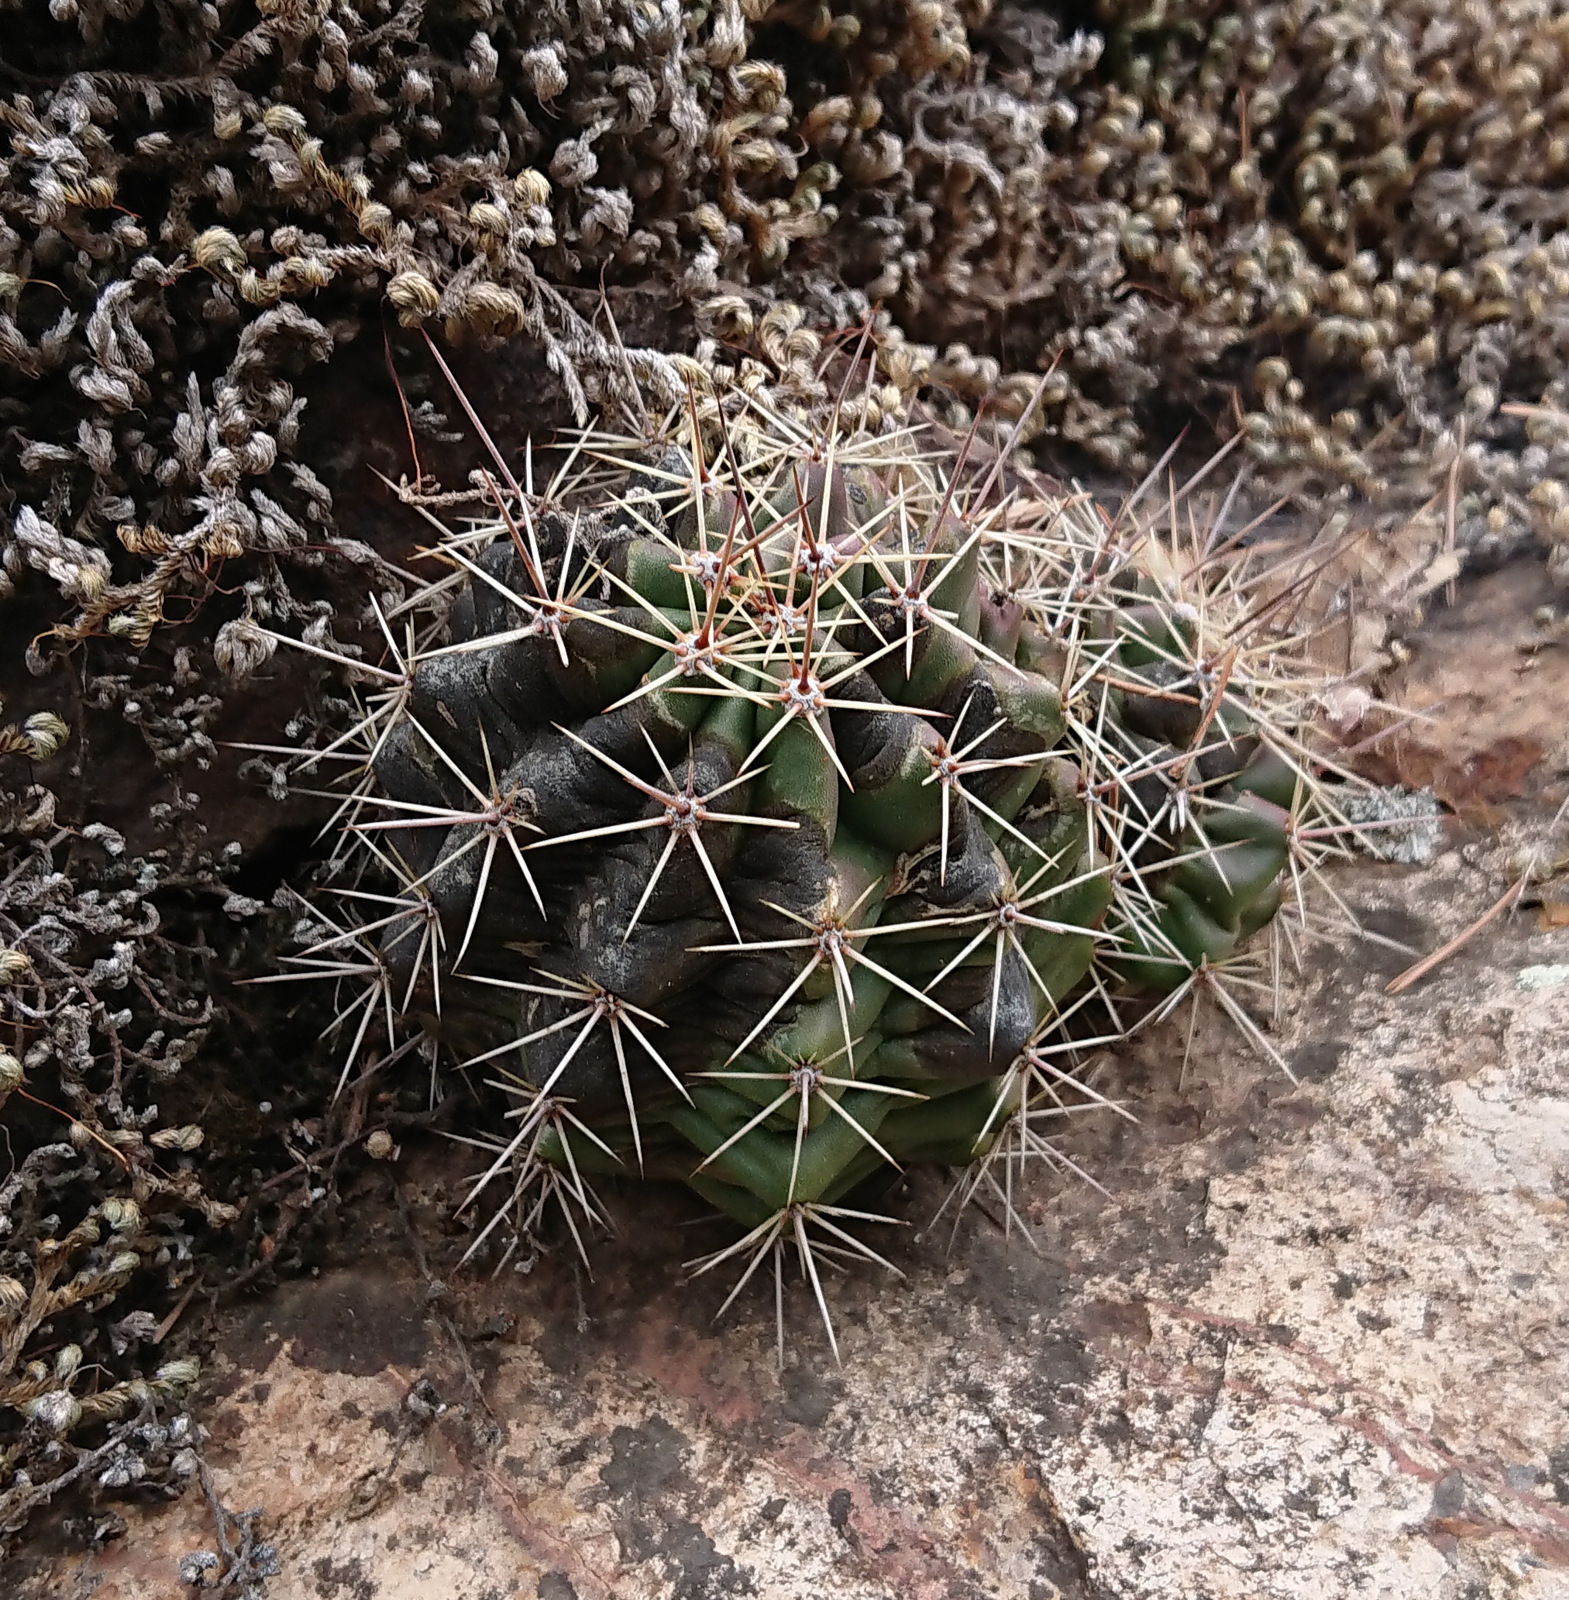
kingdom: Plantae
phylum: Tracheophyta
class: Magnoliopsida
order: Caryophyllales
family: Cactaceae
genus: Echinocereus
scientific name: Echinocereus coccineus
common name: Scarlet hedgehog cactus
